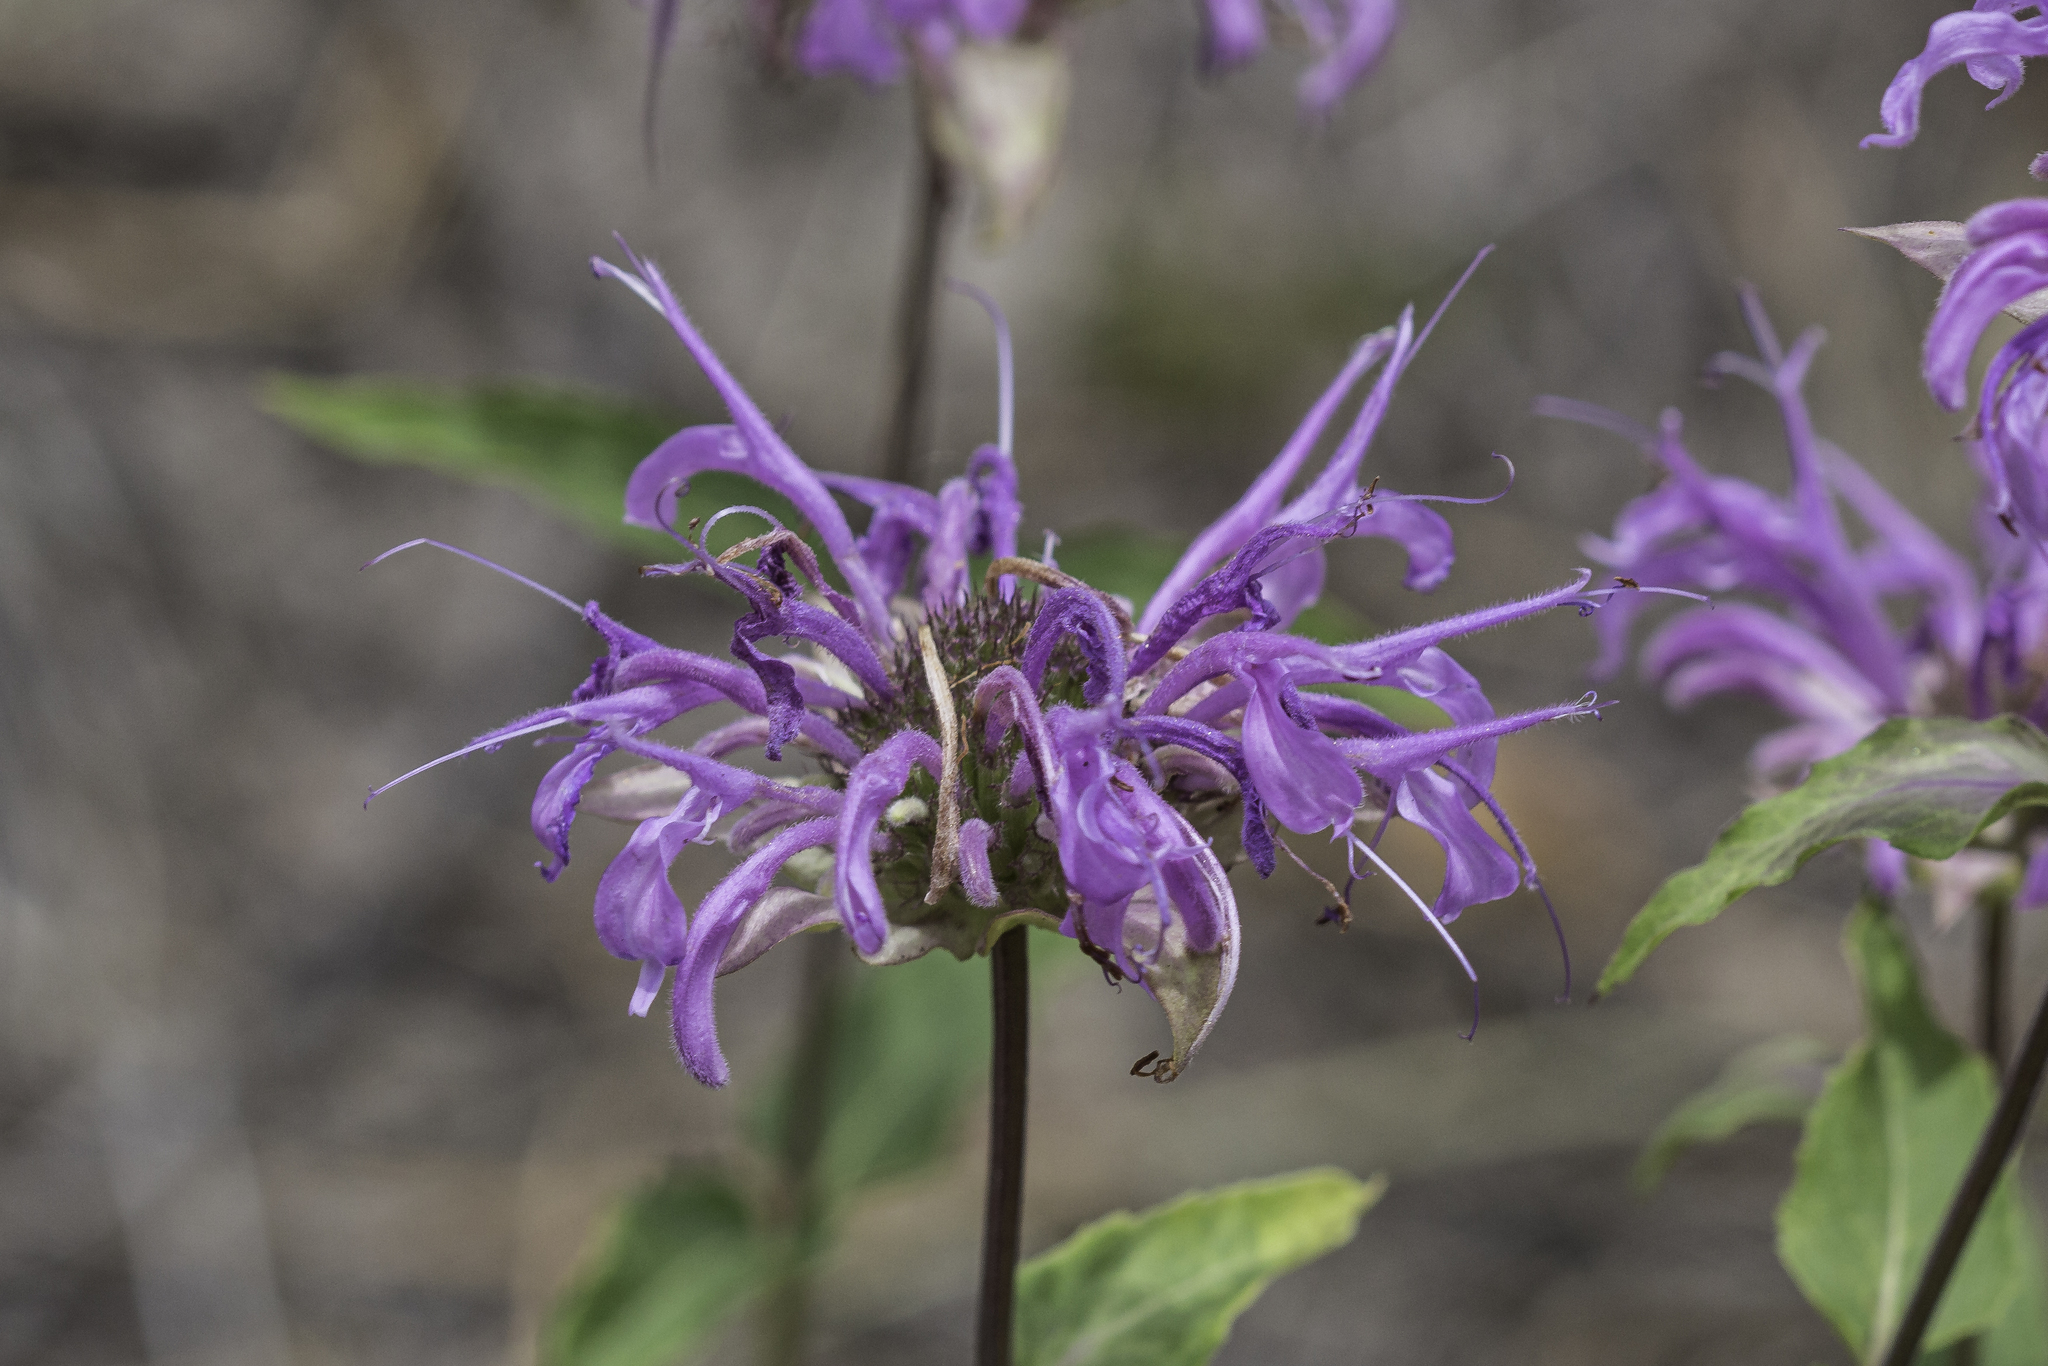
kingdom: Plantae
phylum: Tracheophyta
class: Magnoliopsida
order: Lamiales
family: Lamiaceae
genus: Monarda
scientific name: Monarda fistulosa
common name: Purple beebalm
